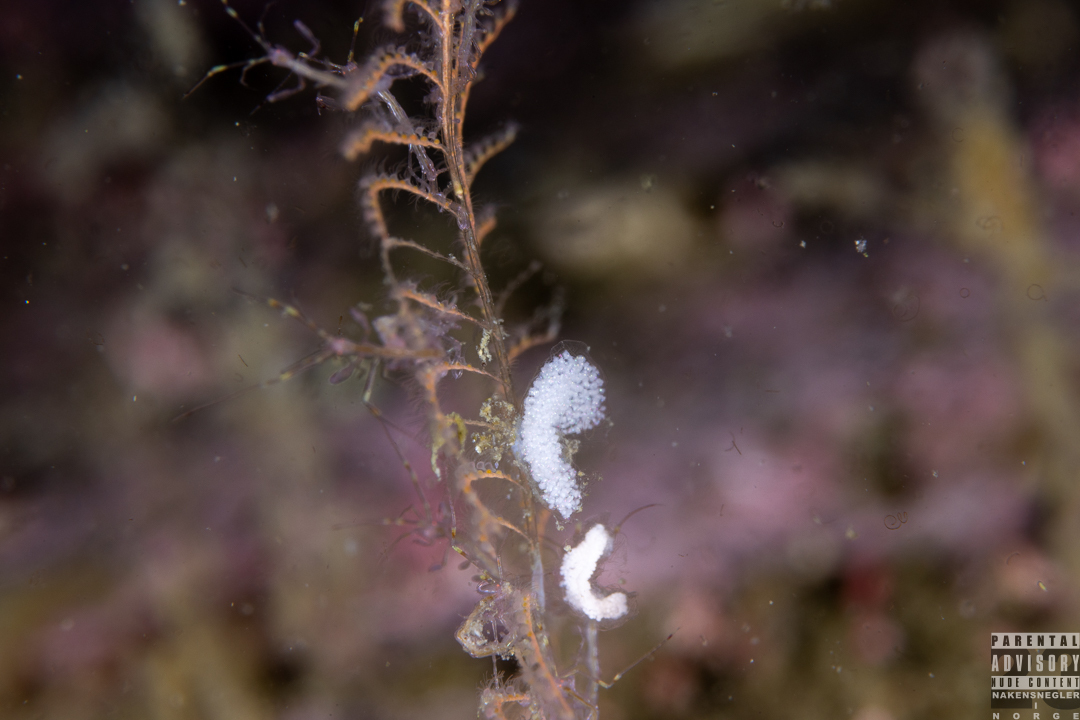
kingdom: Animalia
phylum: Mollusca
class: Gastropoda
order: Nudibranchia
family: Eubranchidae
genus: Eubranchus
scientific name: Eubranchus vittatus
